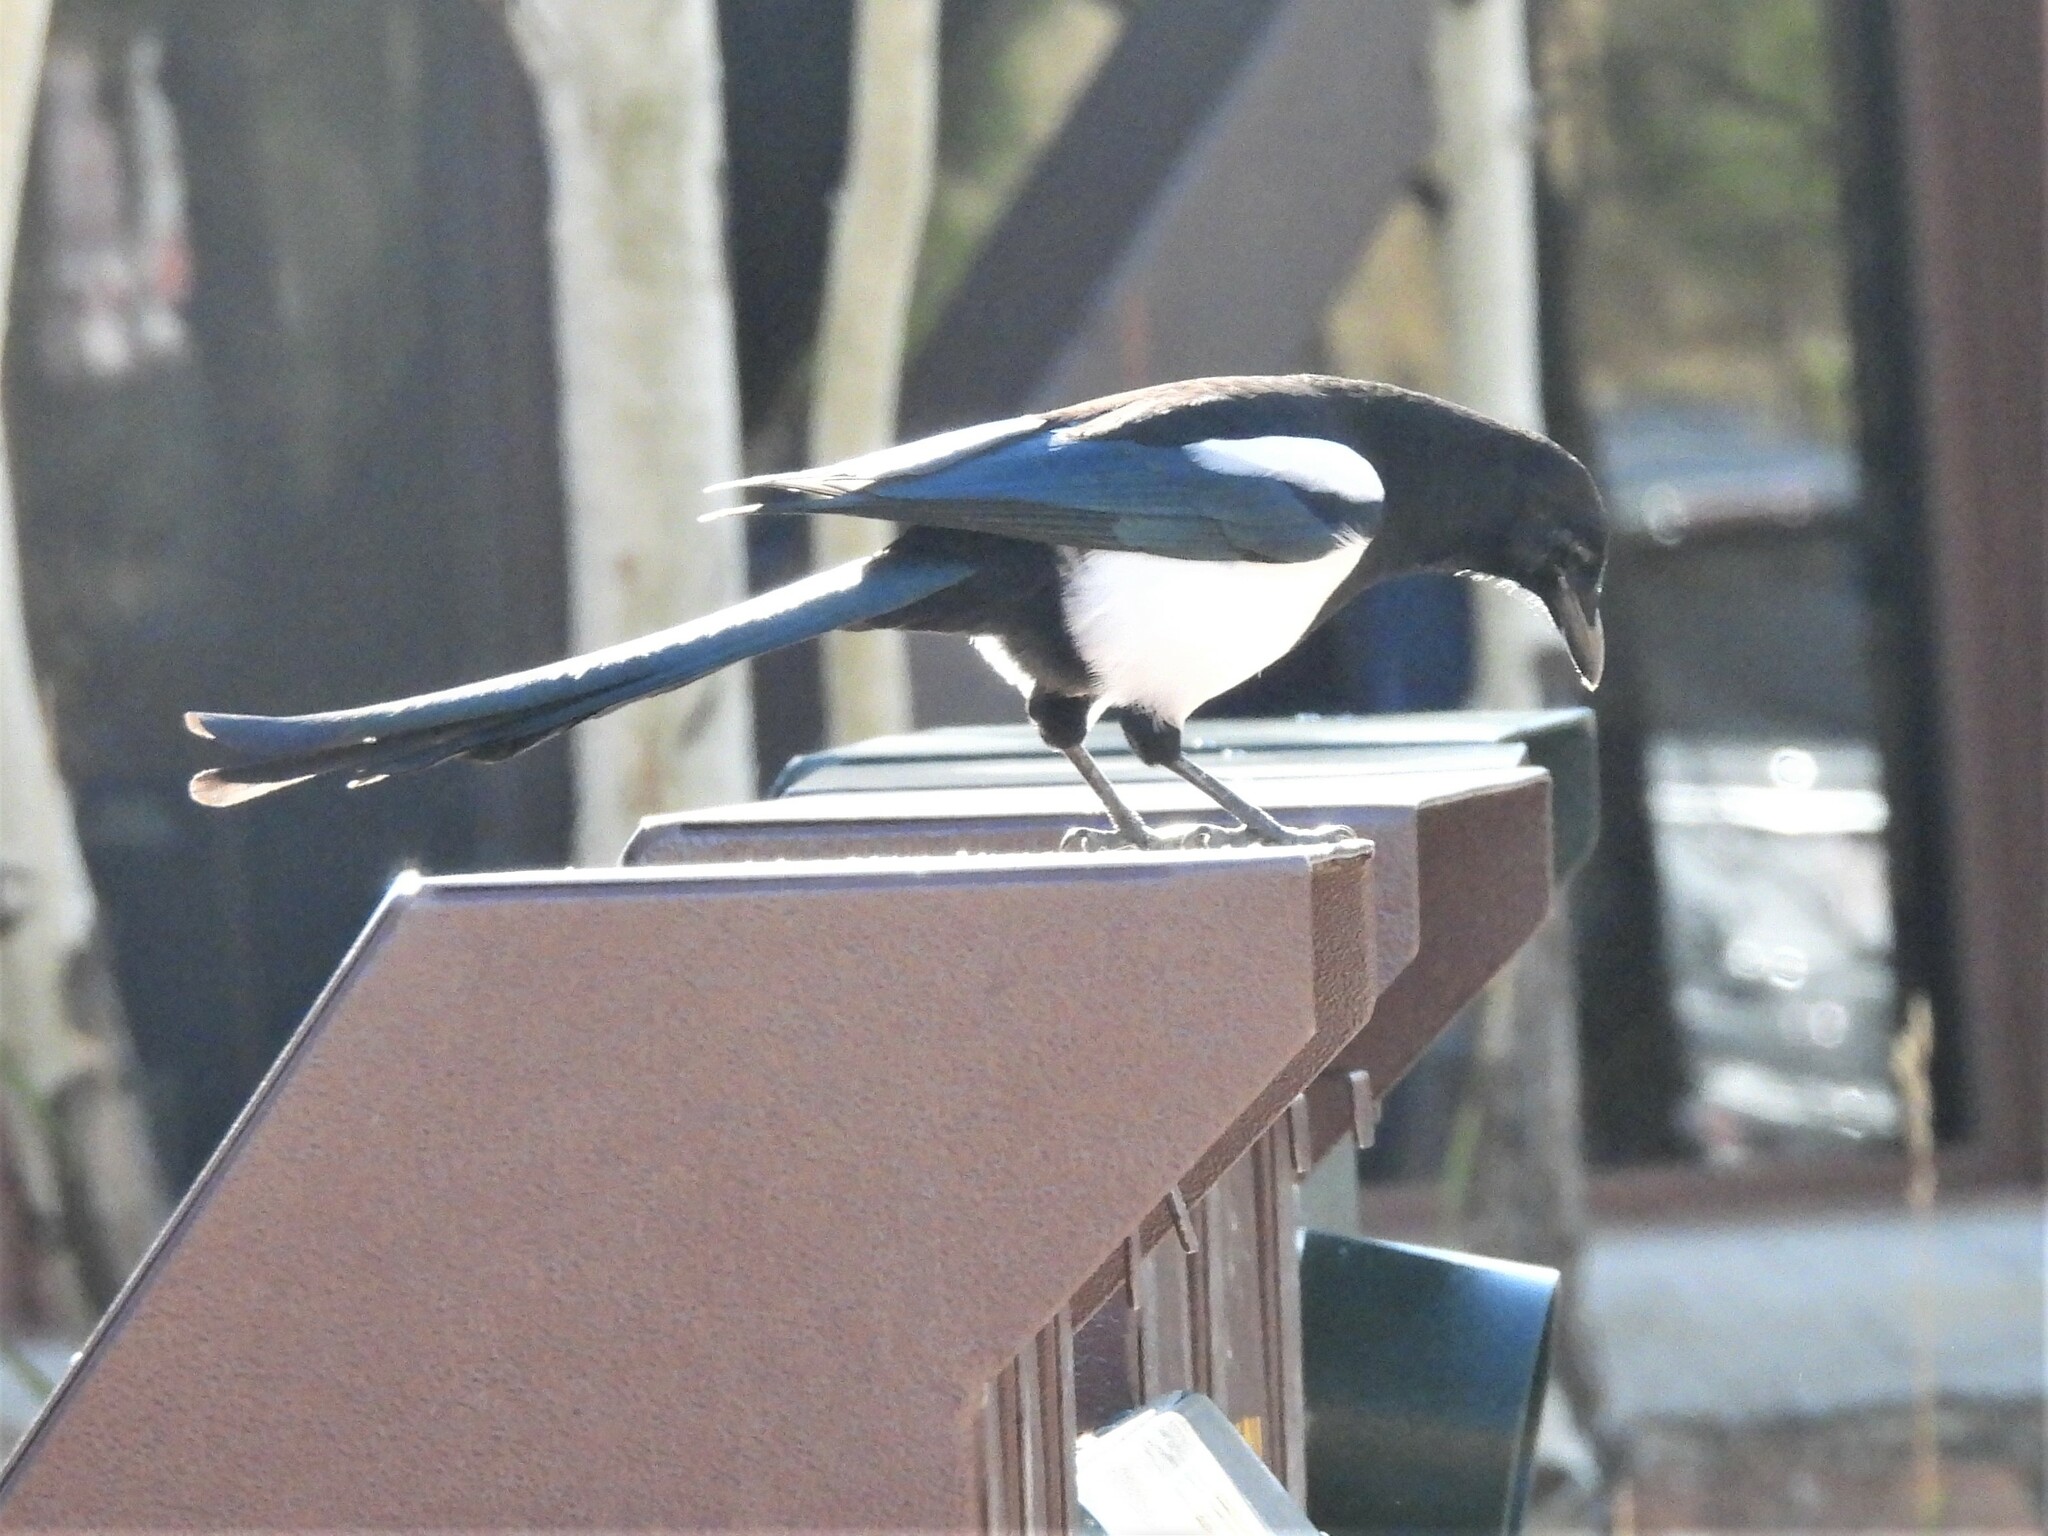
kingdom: Animalia
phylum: Chordata
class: Aves
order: Passeriformes
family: Corvidae
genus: Pica
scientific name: Pica hudsonia
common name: Black-billed magpie
